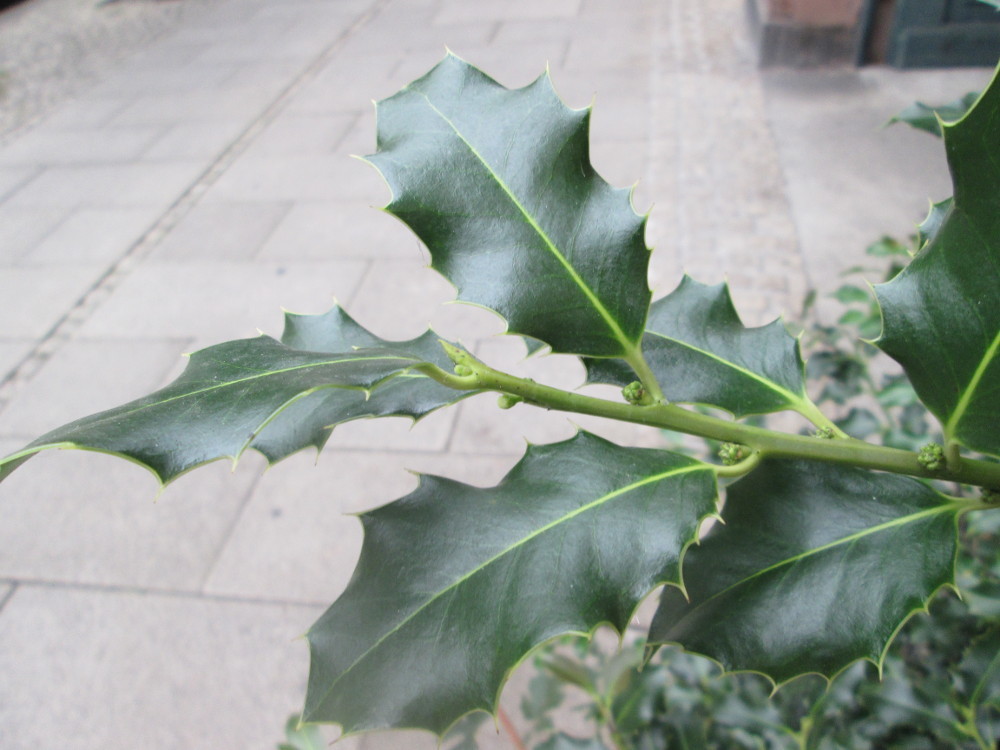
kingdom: Plantae
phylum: Tracheophyta
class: Magnoliopsida
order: Aquifoliales
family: Aquifoliaceae
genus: Ilex
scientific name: Ilex aquifolium
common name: English holly
